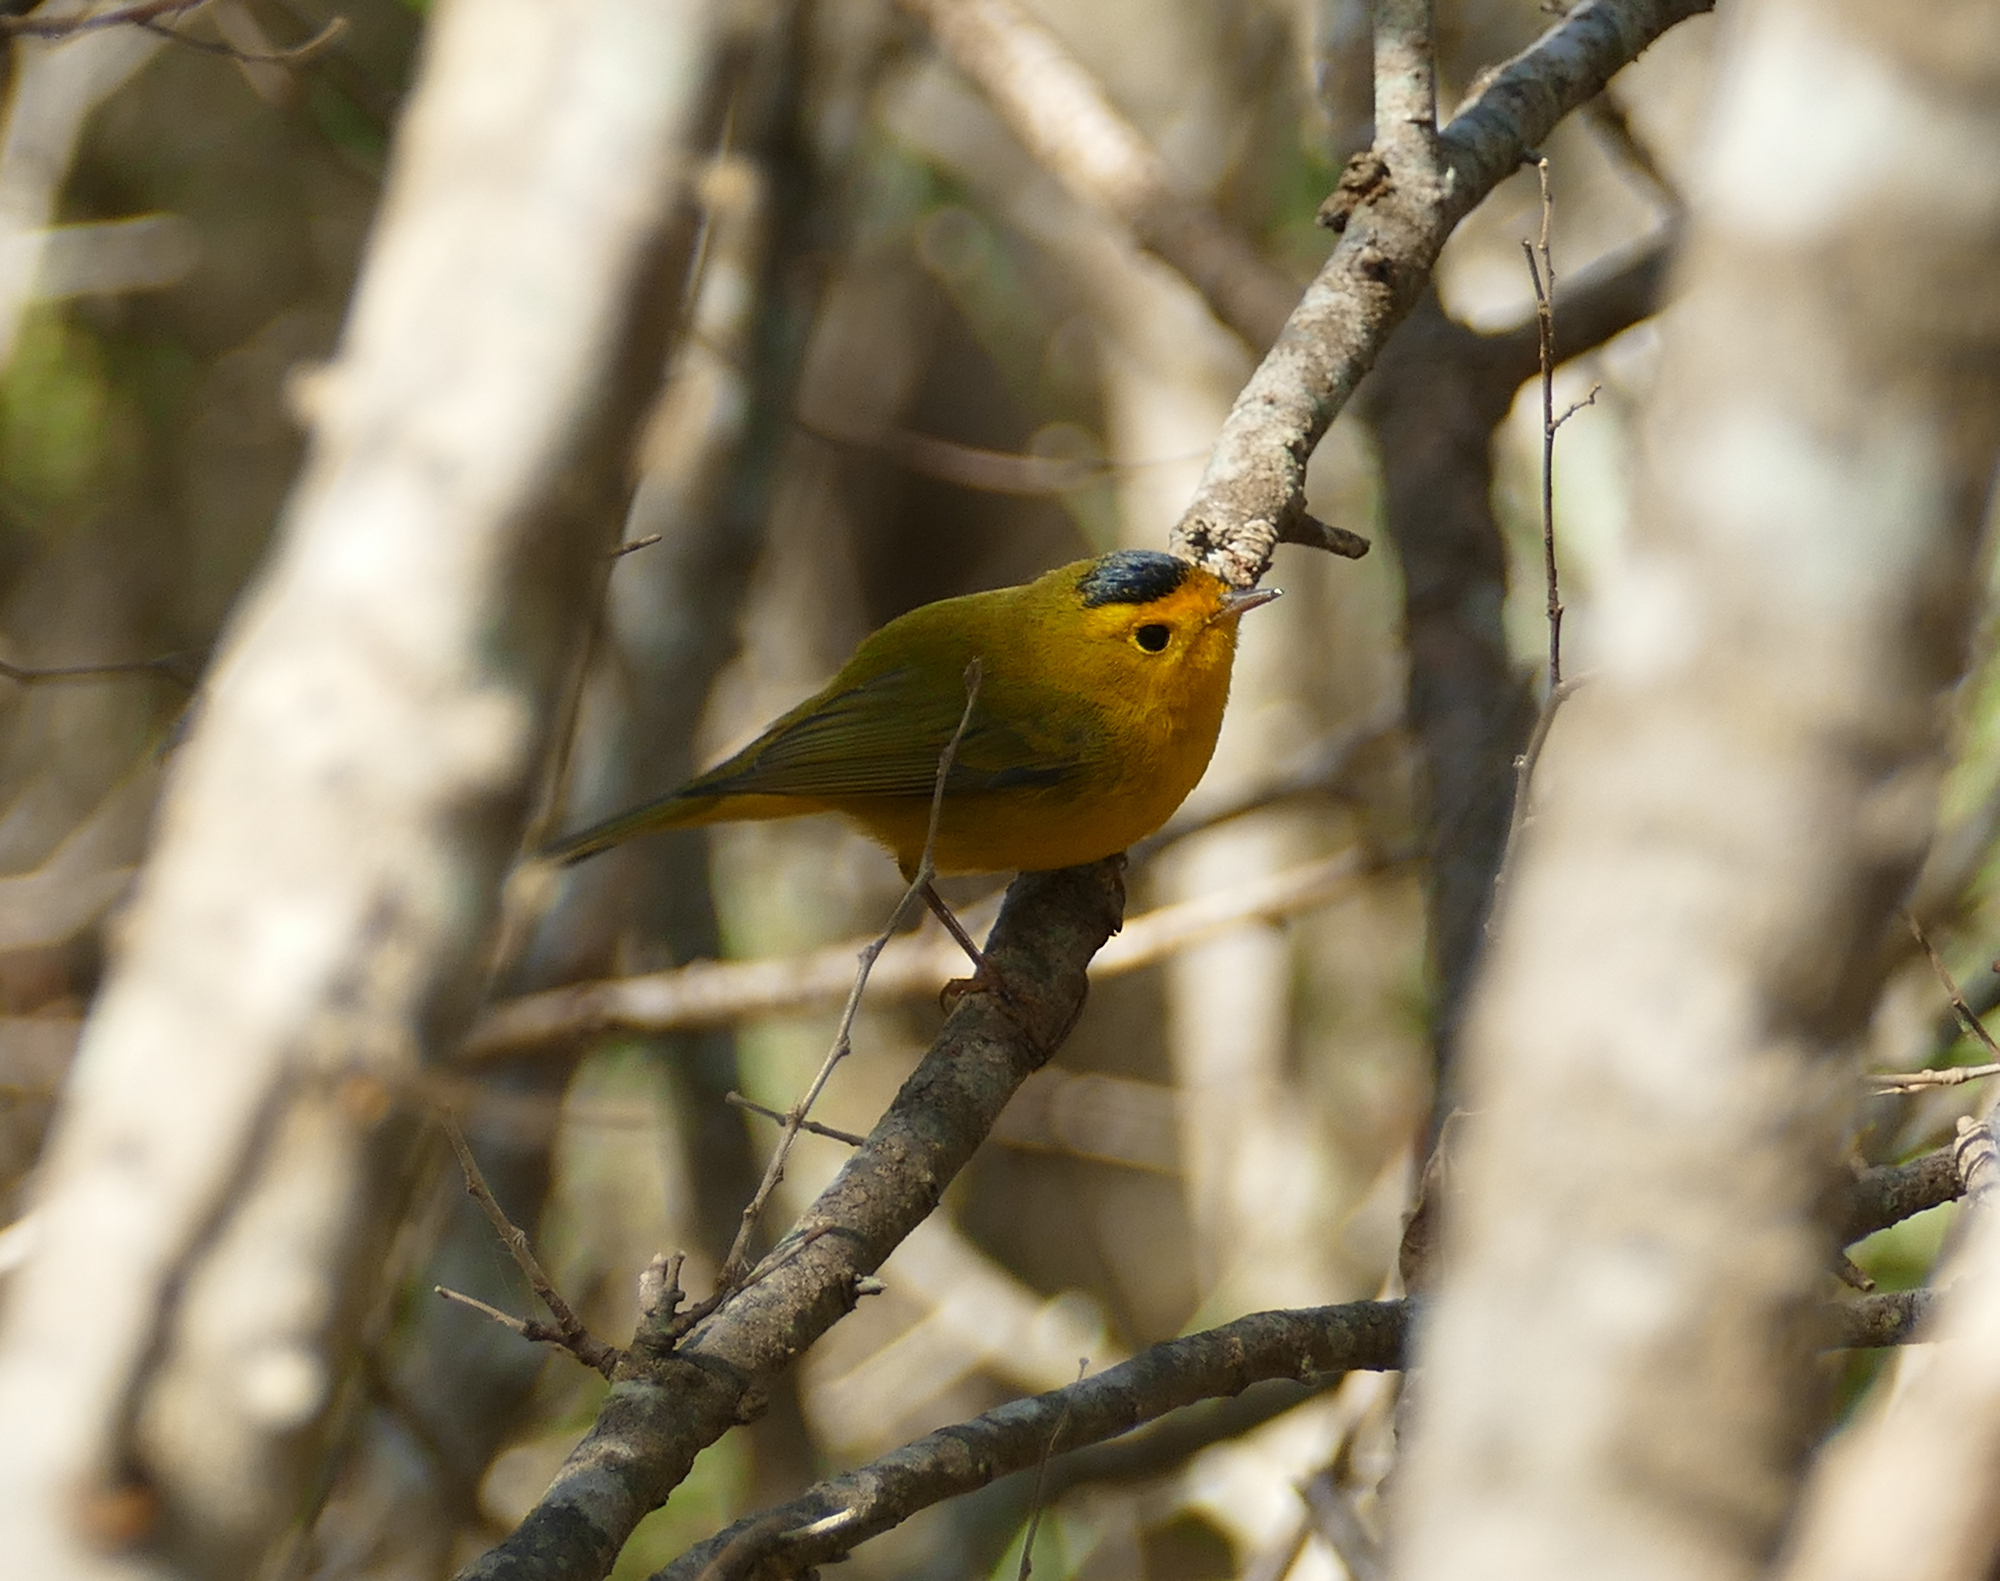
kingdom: Animalia
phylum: Chordata
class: Aves
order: Passeriformes
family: Parulidae
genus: Cardellina
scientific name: Cardellina pusilla
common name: Wilson's warbler
